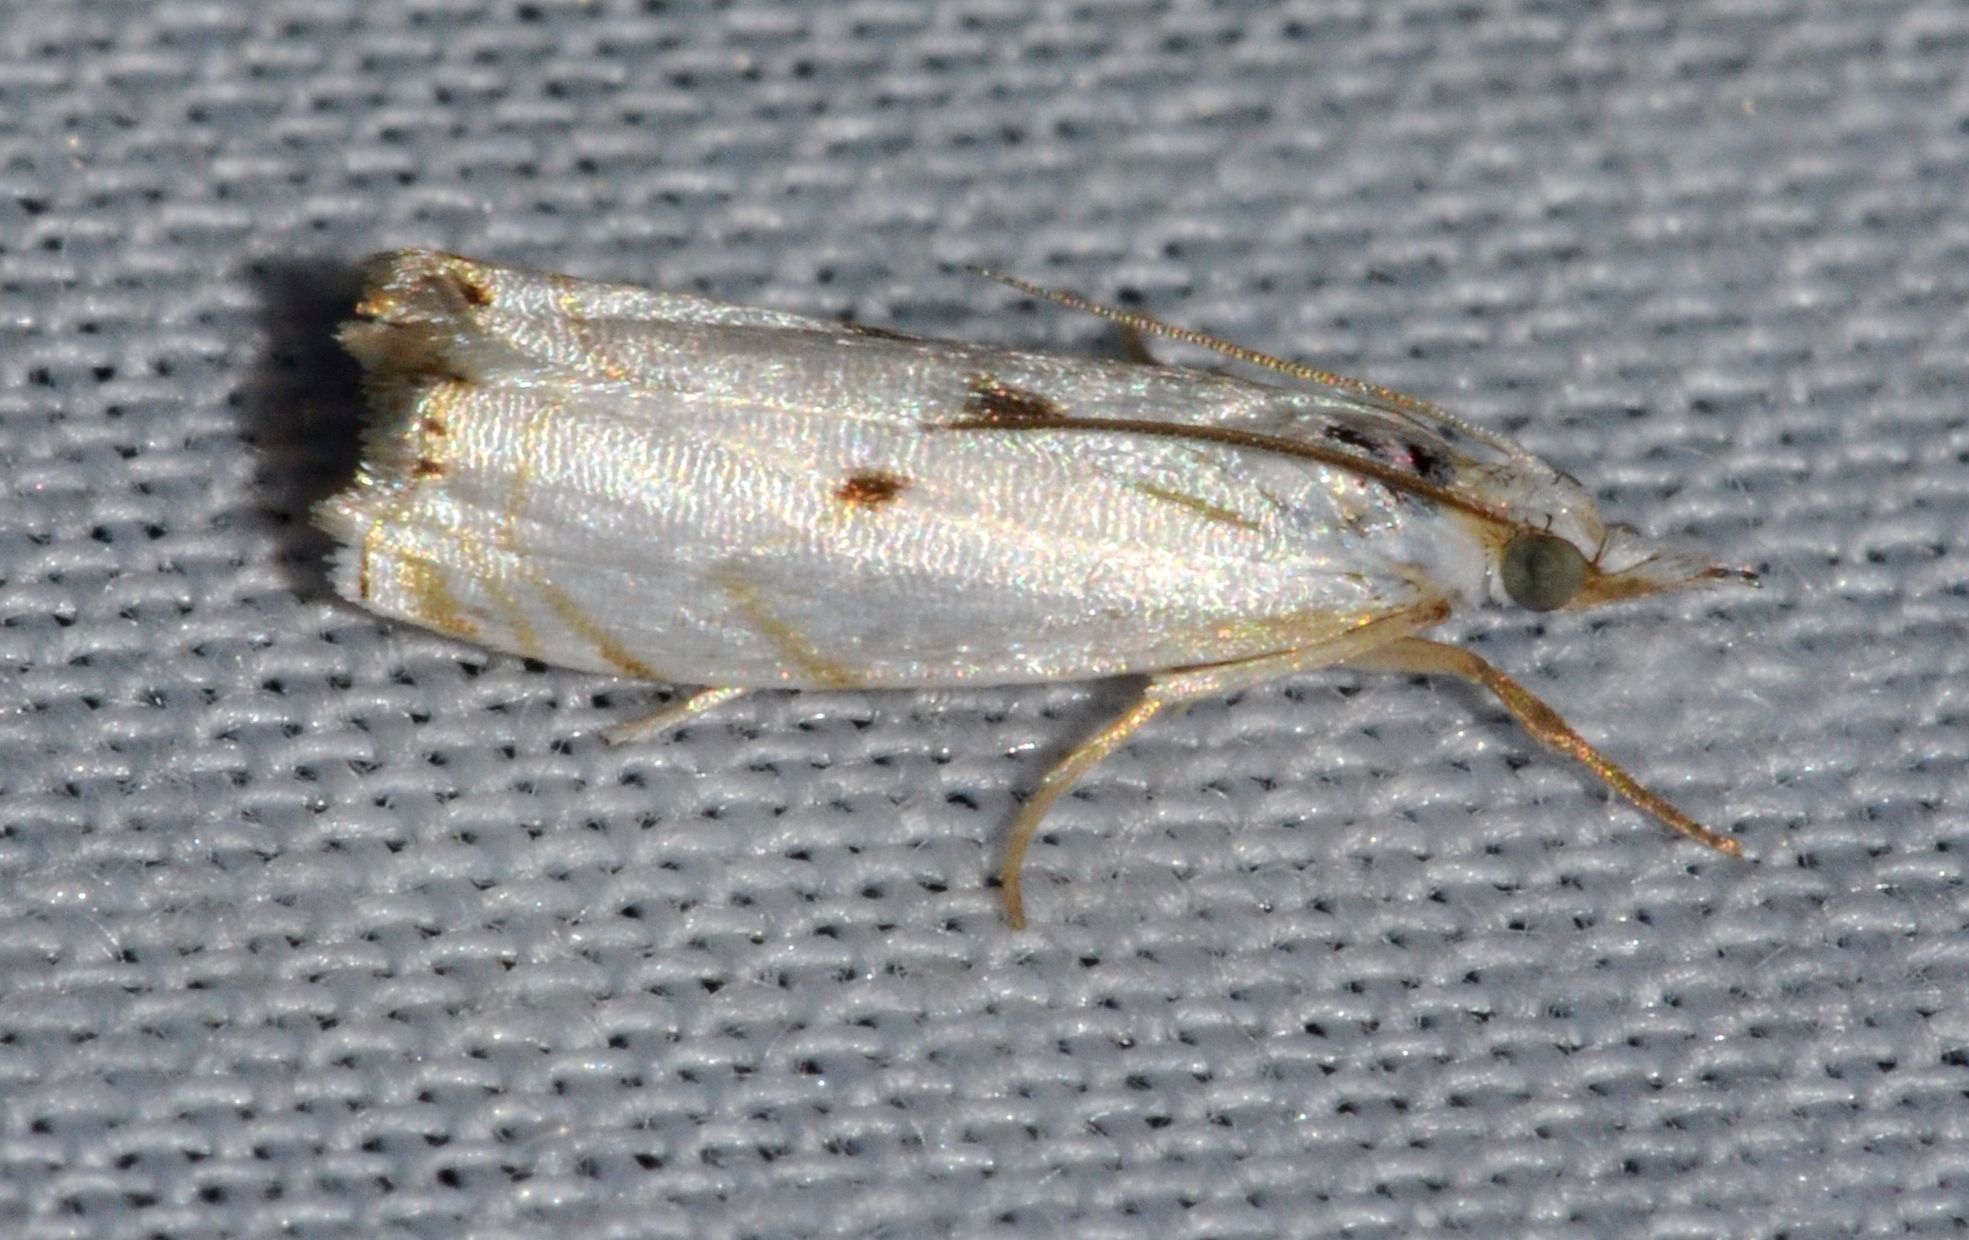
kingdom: Animalia
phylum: Arthropoda
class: Insecta
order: Lepidoptera
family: Crambidae
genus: Microcrambus
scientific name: Microcrambus biguttellus
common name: Gold-stripe grass-veneer moth
